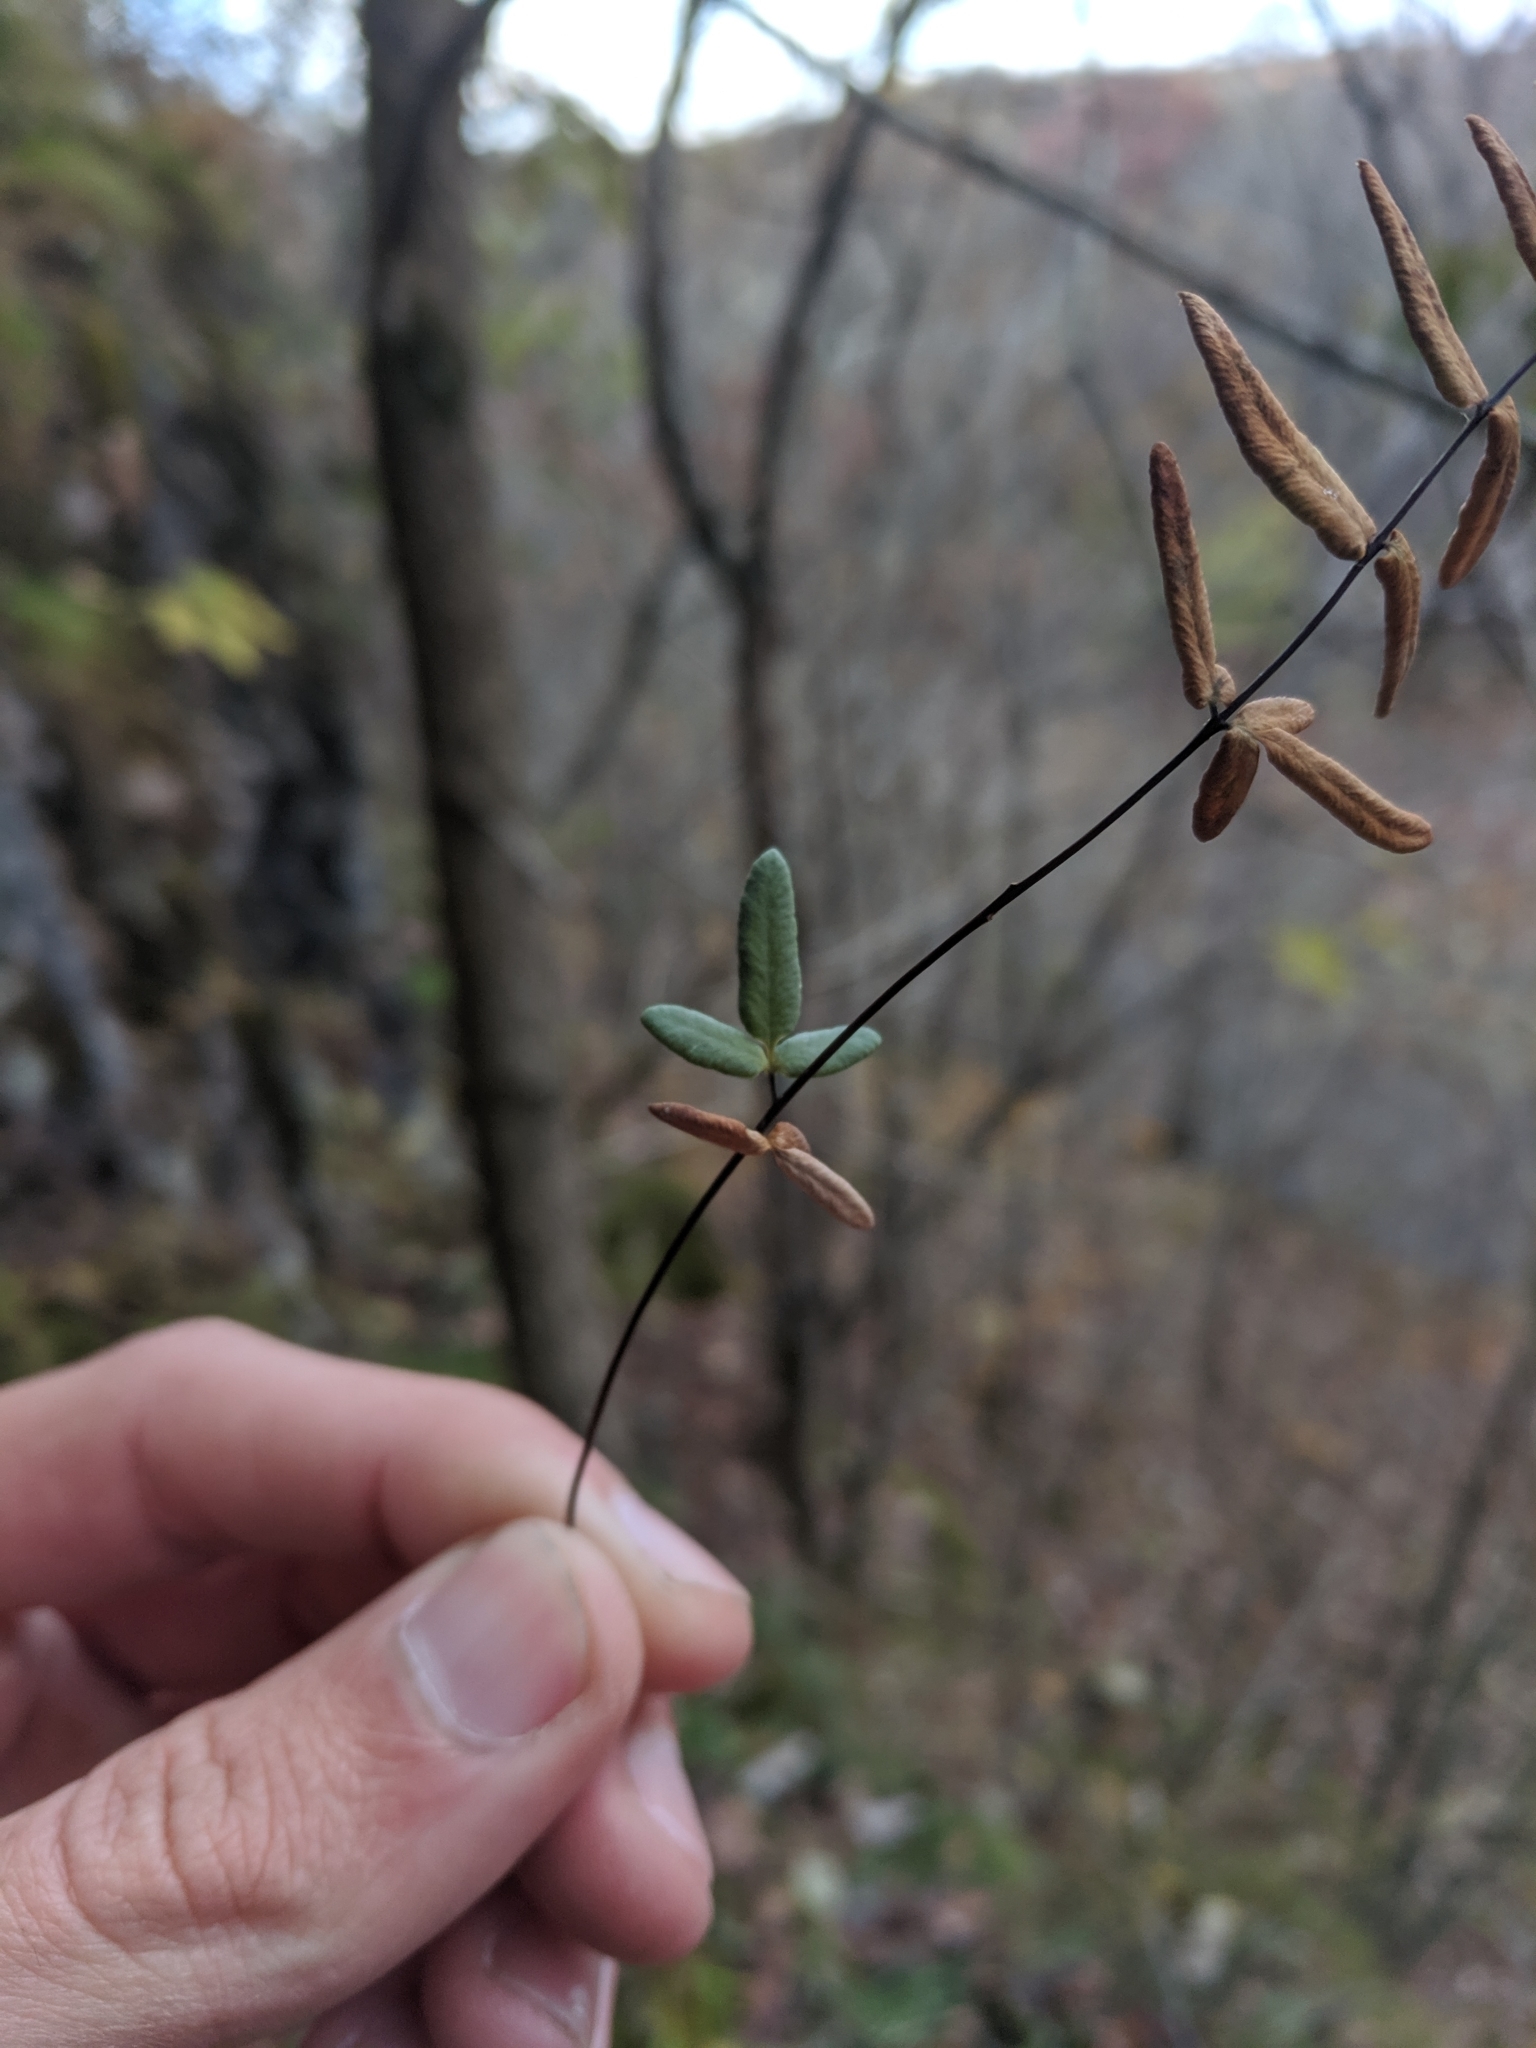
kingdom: Plantae
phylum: Tracheophyta
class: Polypodiopsida
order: Polypodiales
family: Pteridaceae
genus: Pellaea
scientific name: Pellaea glabella
